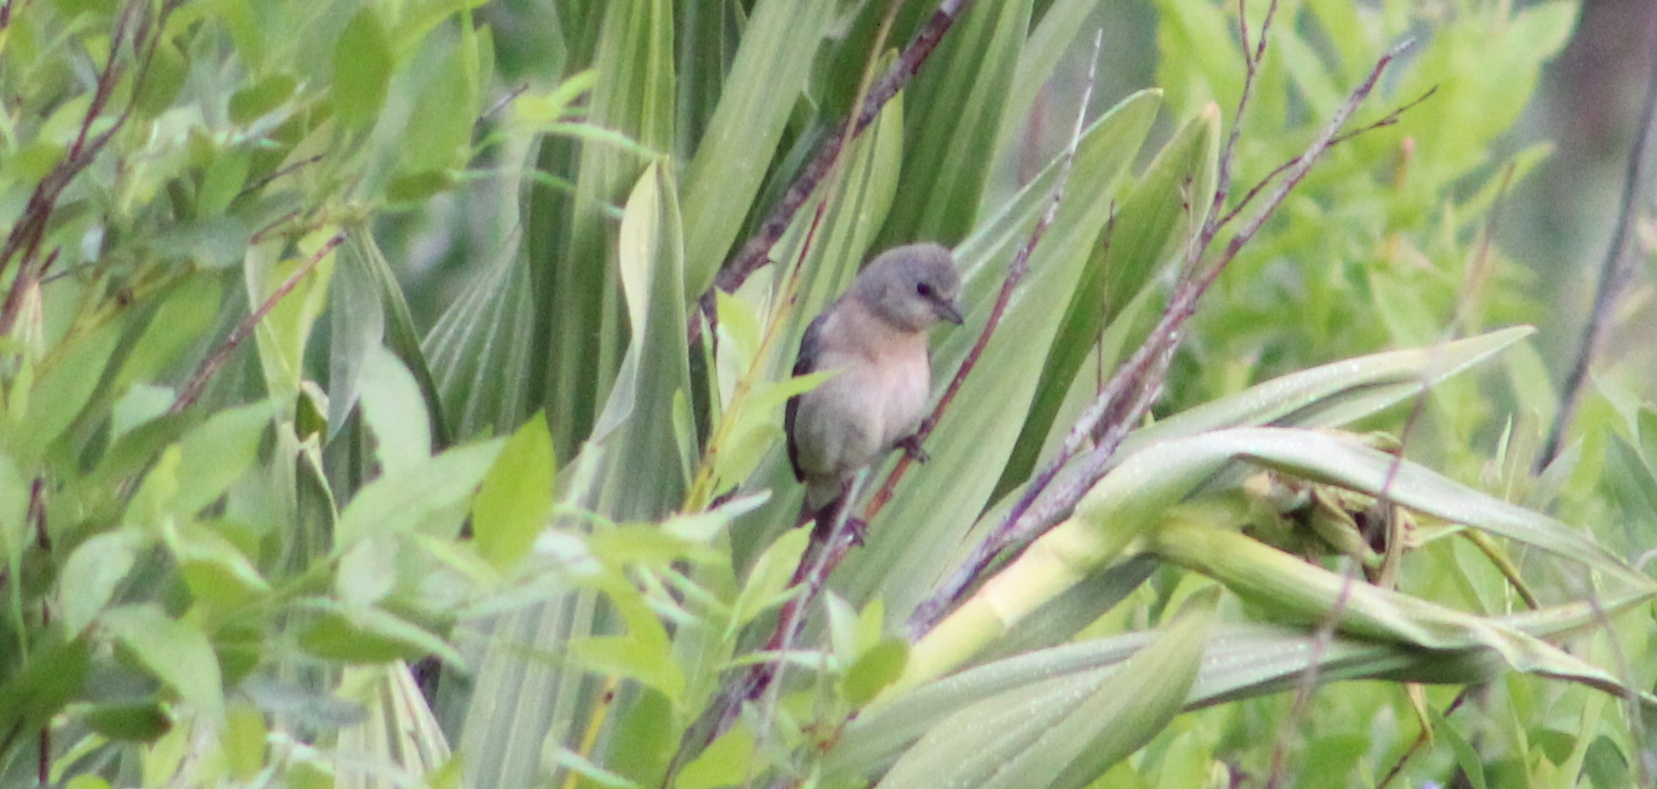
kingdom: Animalia
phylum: Chordata
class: Aves
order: Passeriformes
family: Cardinalidae
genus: Passerina
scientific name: Passerina amoena
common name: Lazuli bunting
